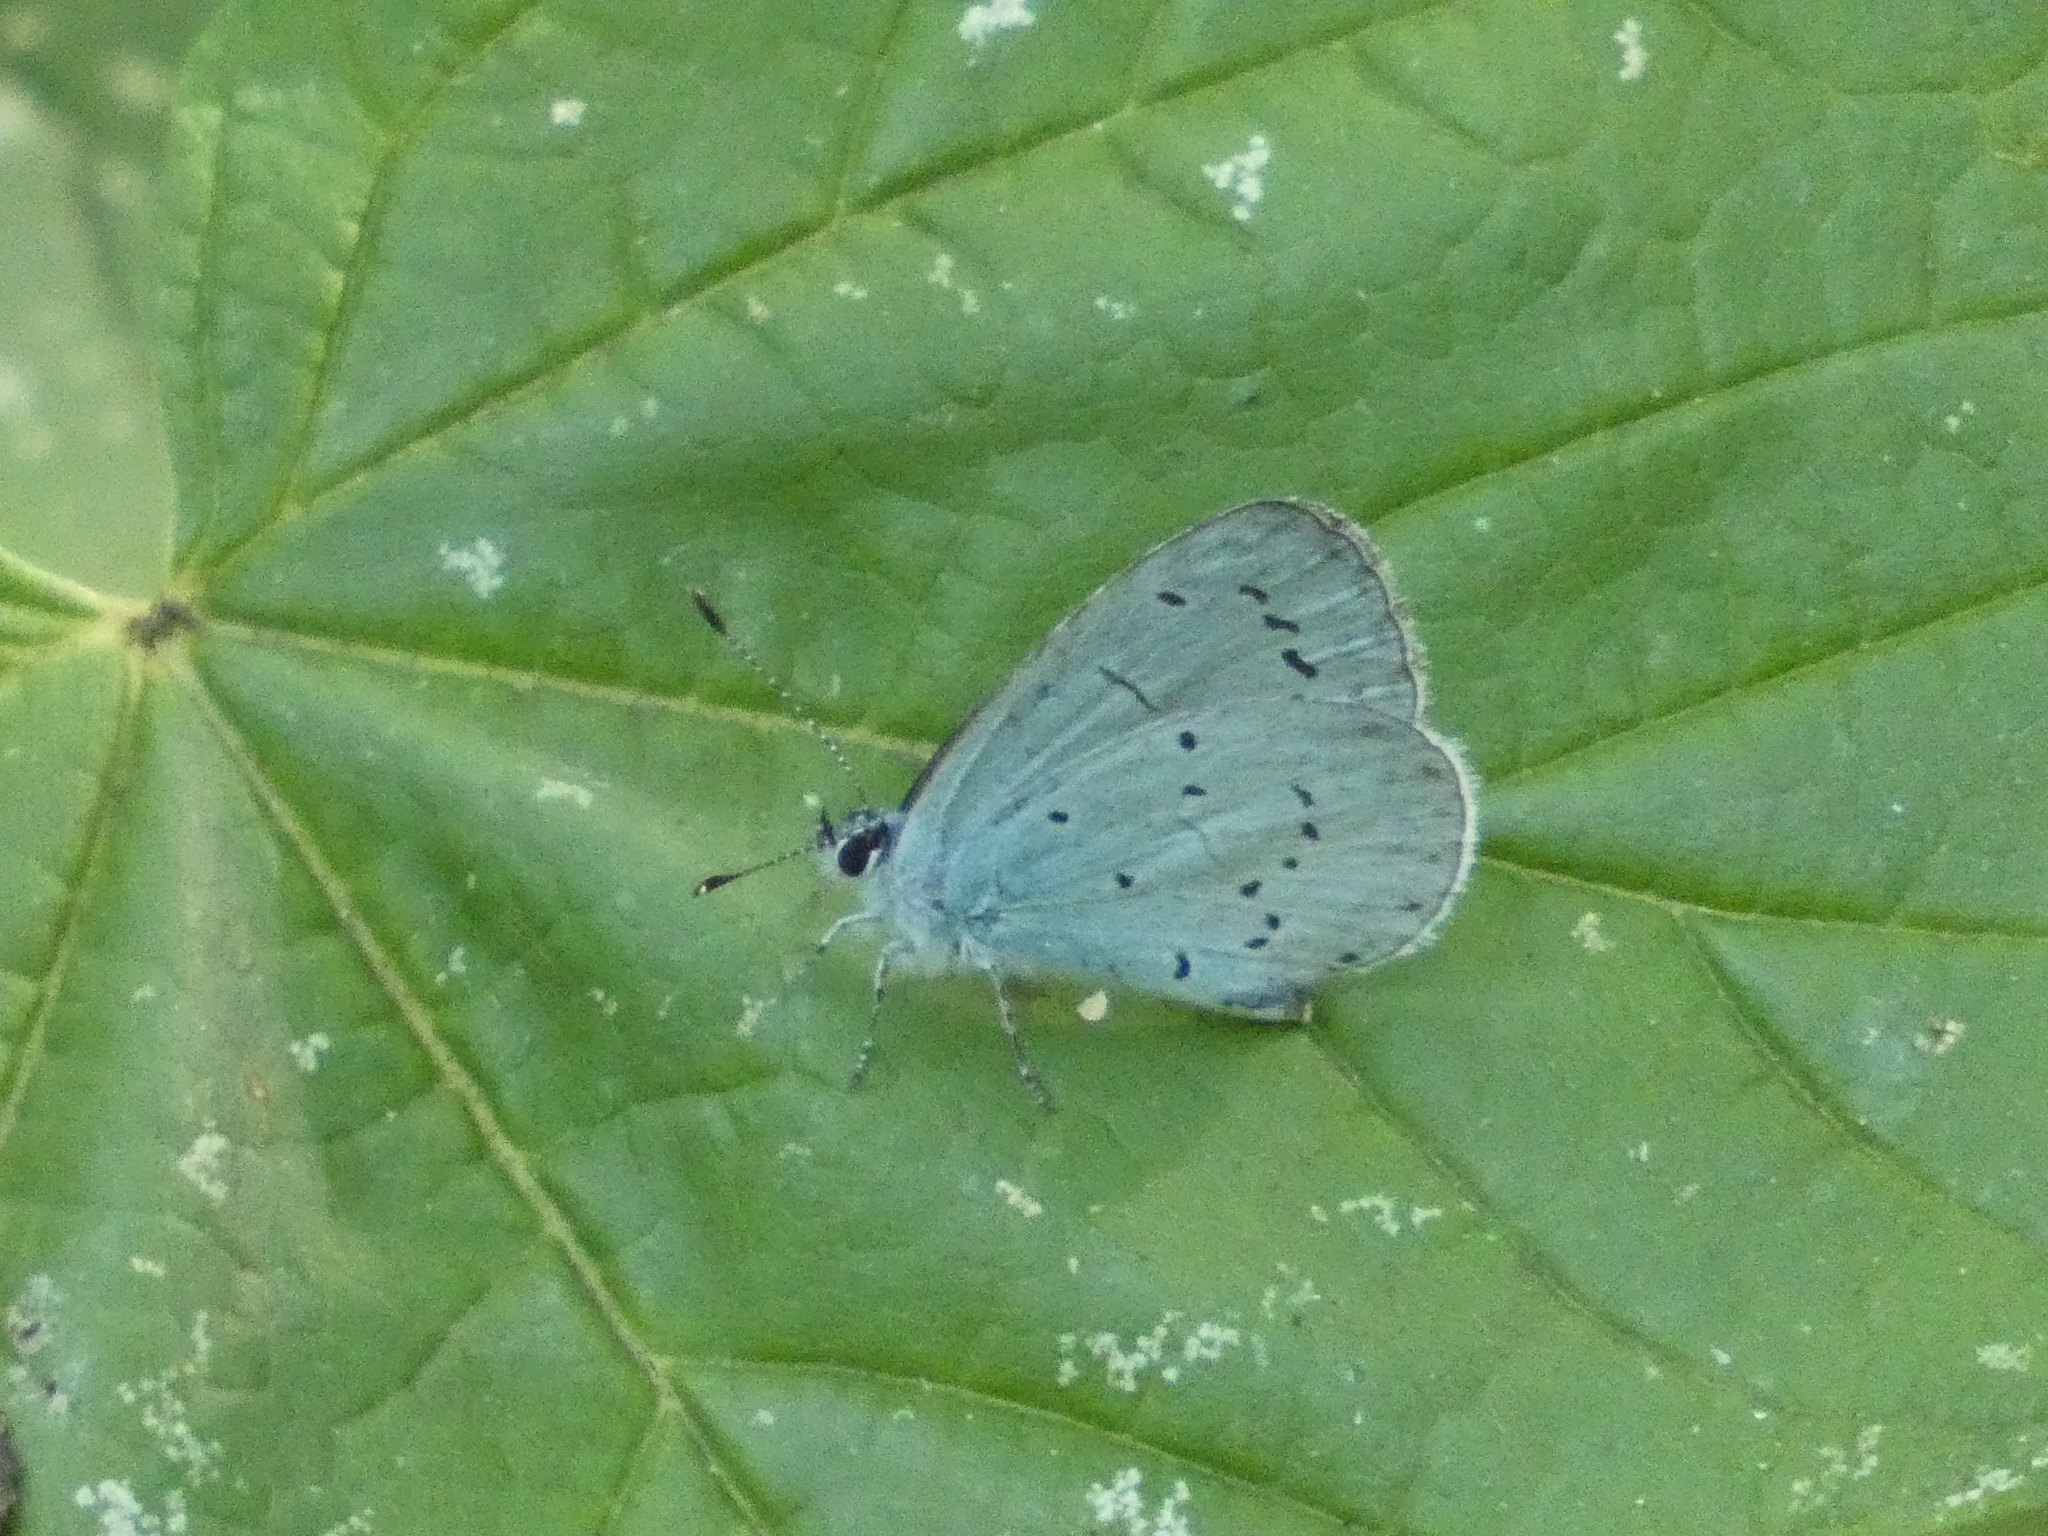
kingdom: Animalia
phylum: Arthropoda
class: Insecta
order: Lepidoptera
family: Lycaenidae
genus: Celastrina
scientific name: Celastrina argiolus
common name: Holly blue
